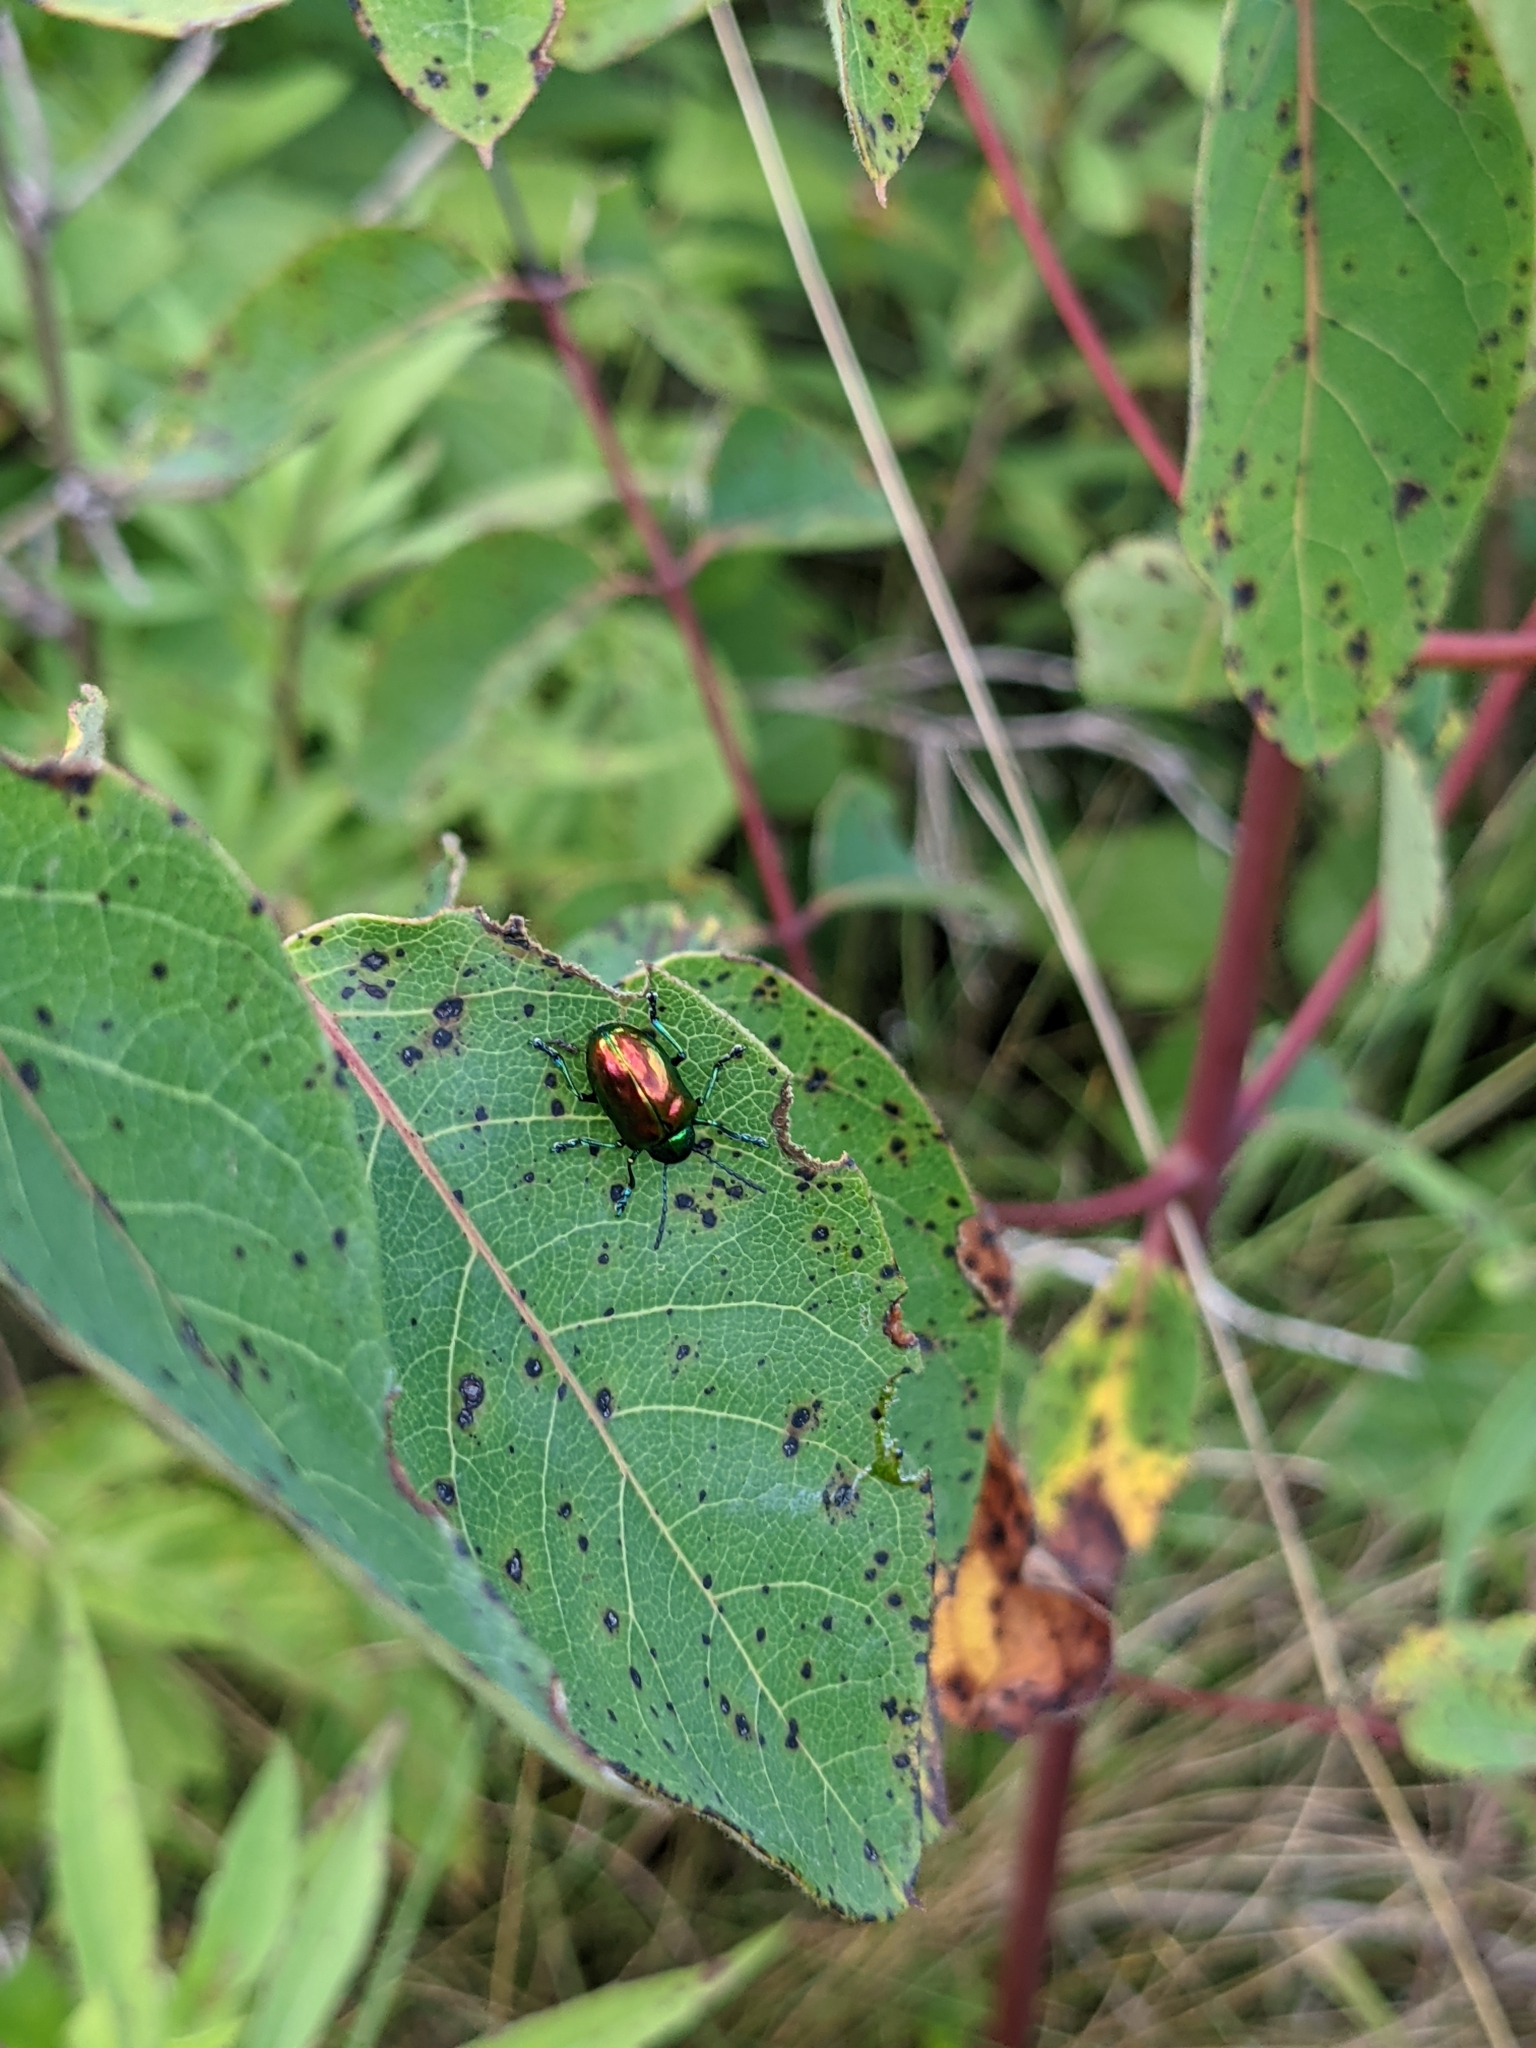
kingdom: Animalia
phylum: Arthropoda
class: Insecta
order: Coleoptera
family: Chrysomelidae
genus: Chrysochus
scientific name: Chrysochus auratus
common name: Dogbane leaf beetle
